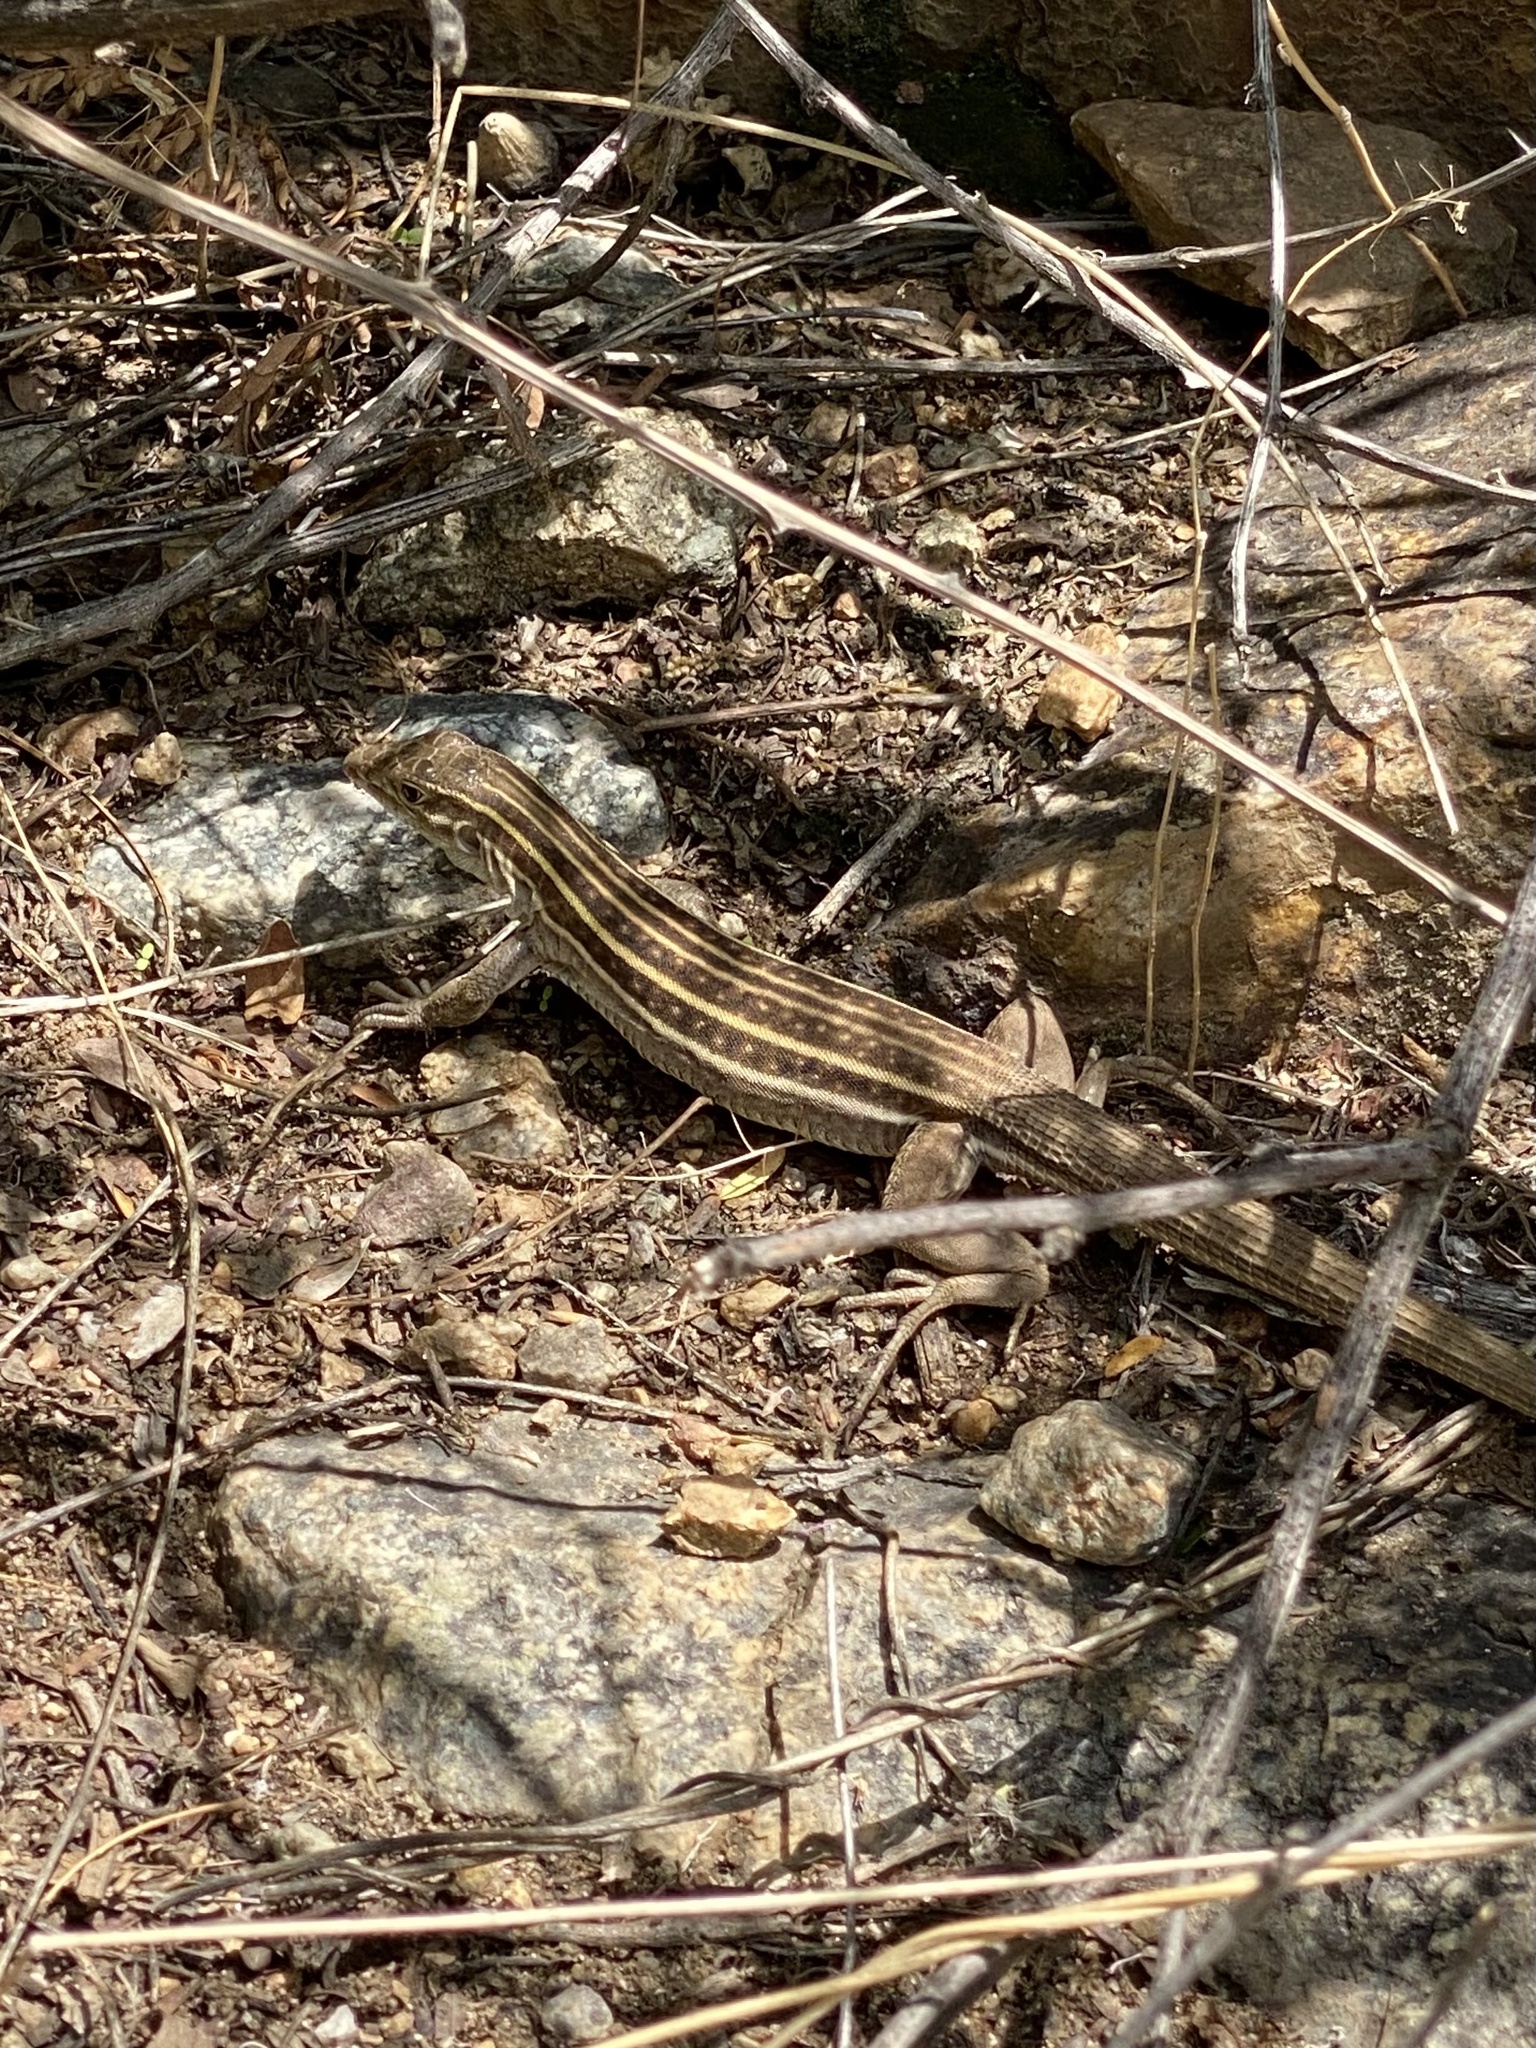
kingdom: Animalia
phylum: Chordata
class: Squamata
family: Teiidae
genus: Aspidoscelis
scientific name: Aspidoscelis sonorae
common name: Sonoran spotted whiptail
